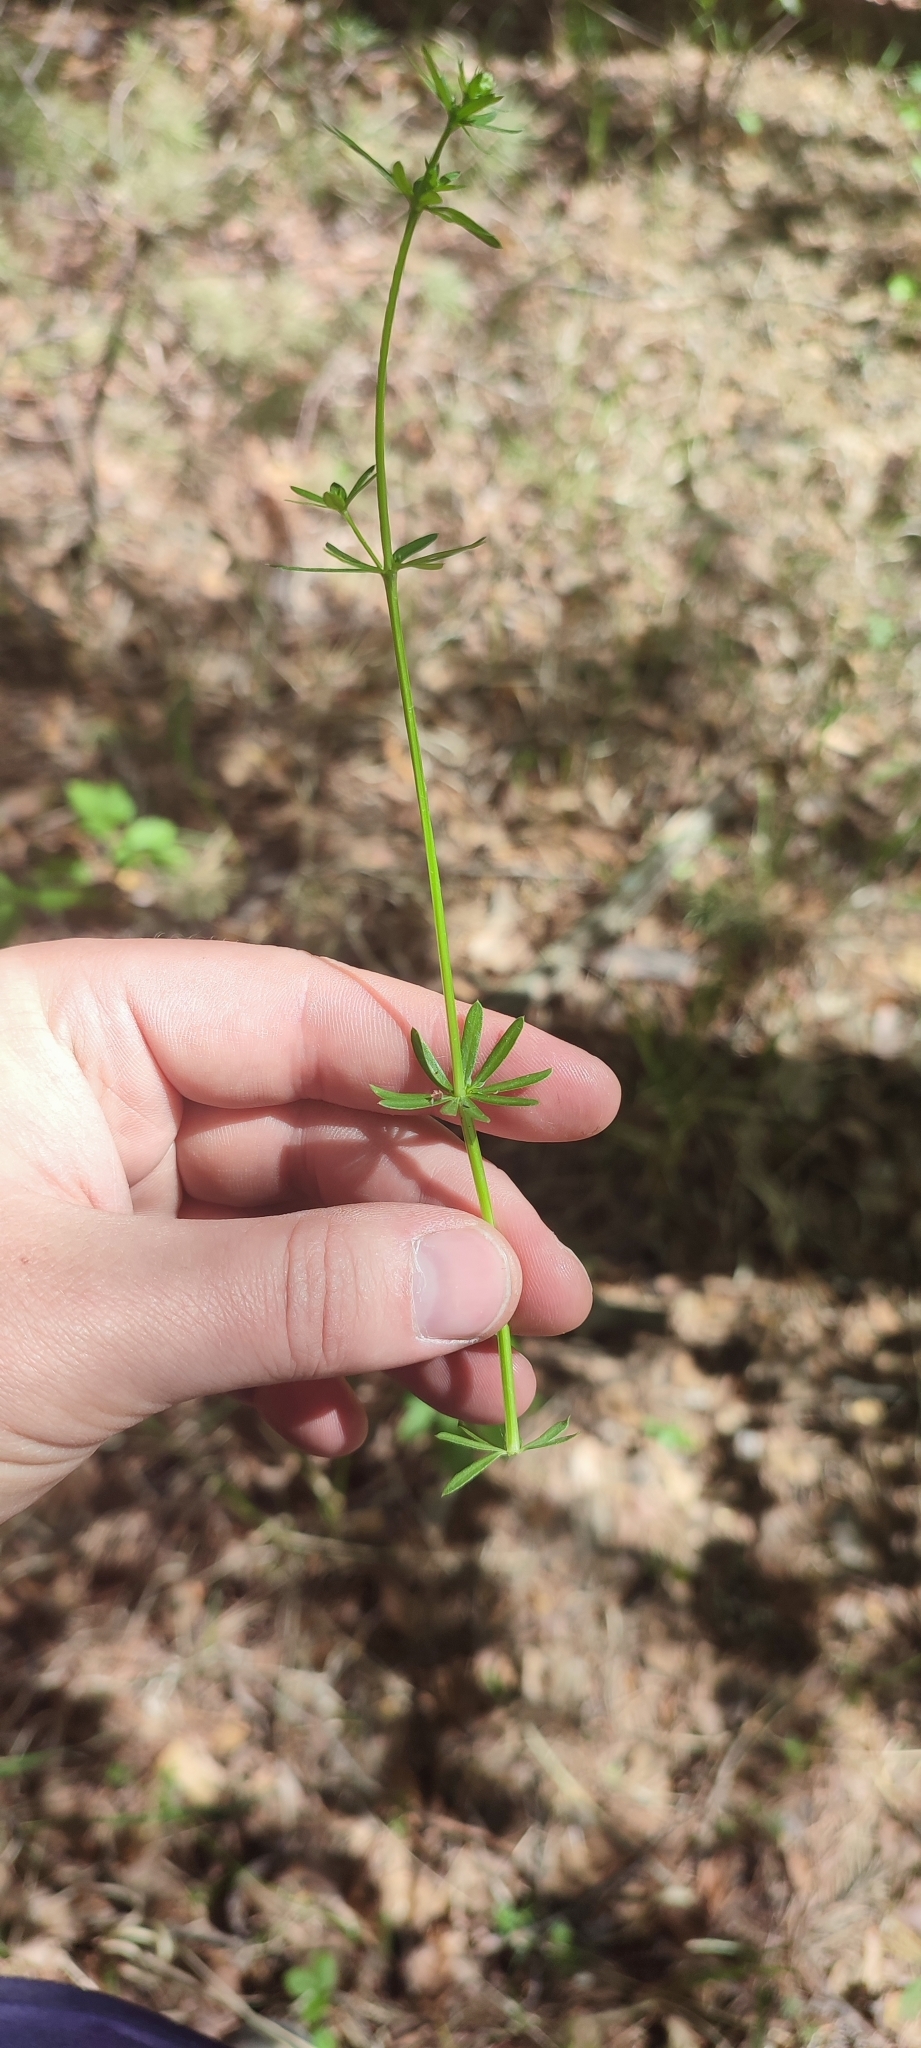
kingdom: Plantae
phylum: Tracheophyta
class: Magnoliopsida
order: Gentianales
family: Rubiaceae
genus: Galium
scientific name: Galium mollugo
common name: Hedge bedstraw
